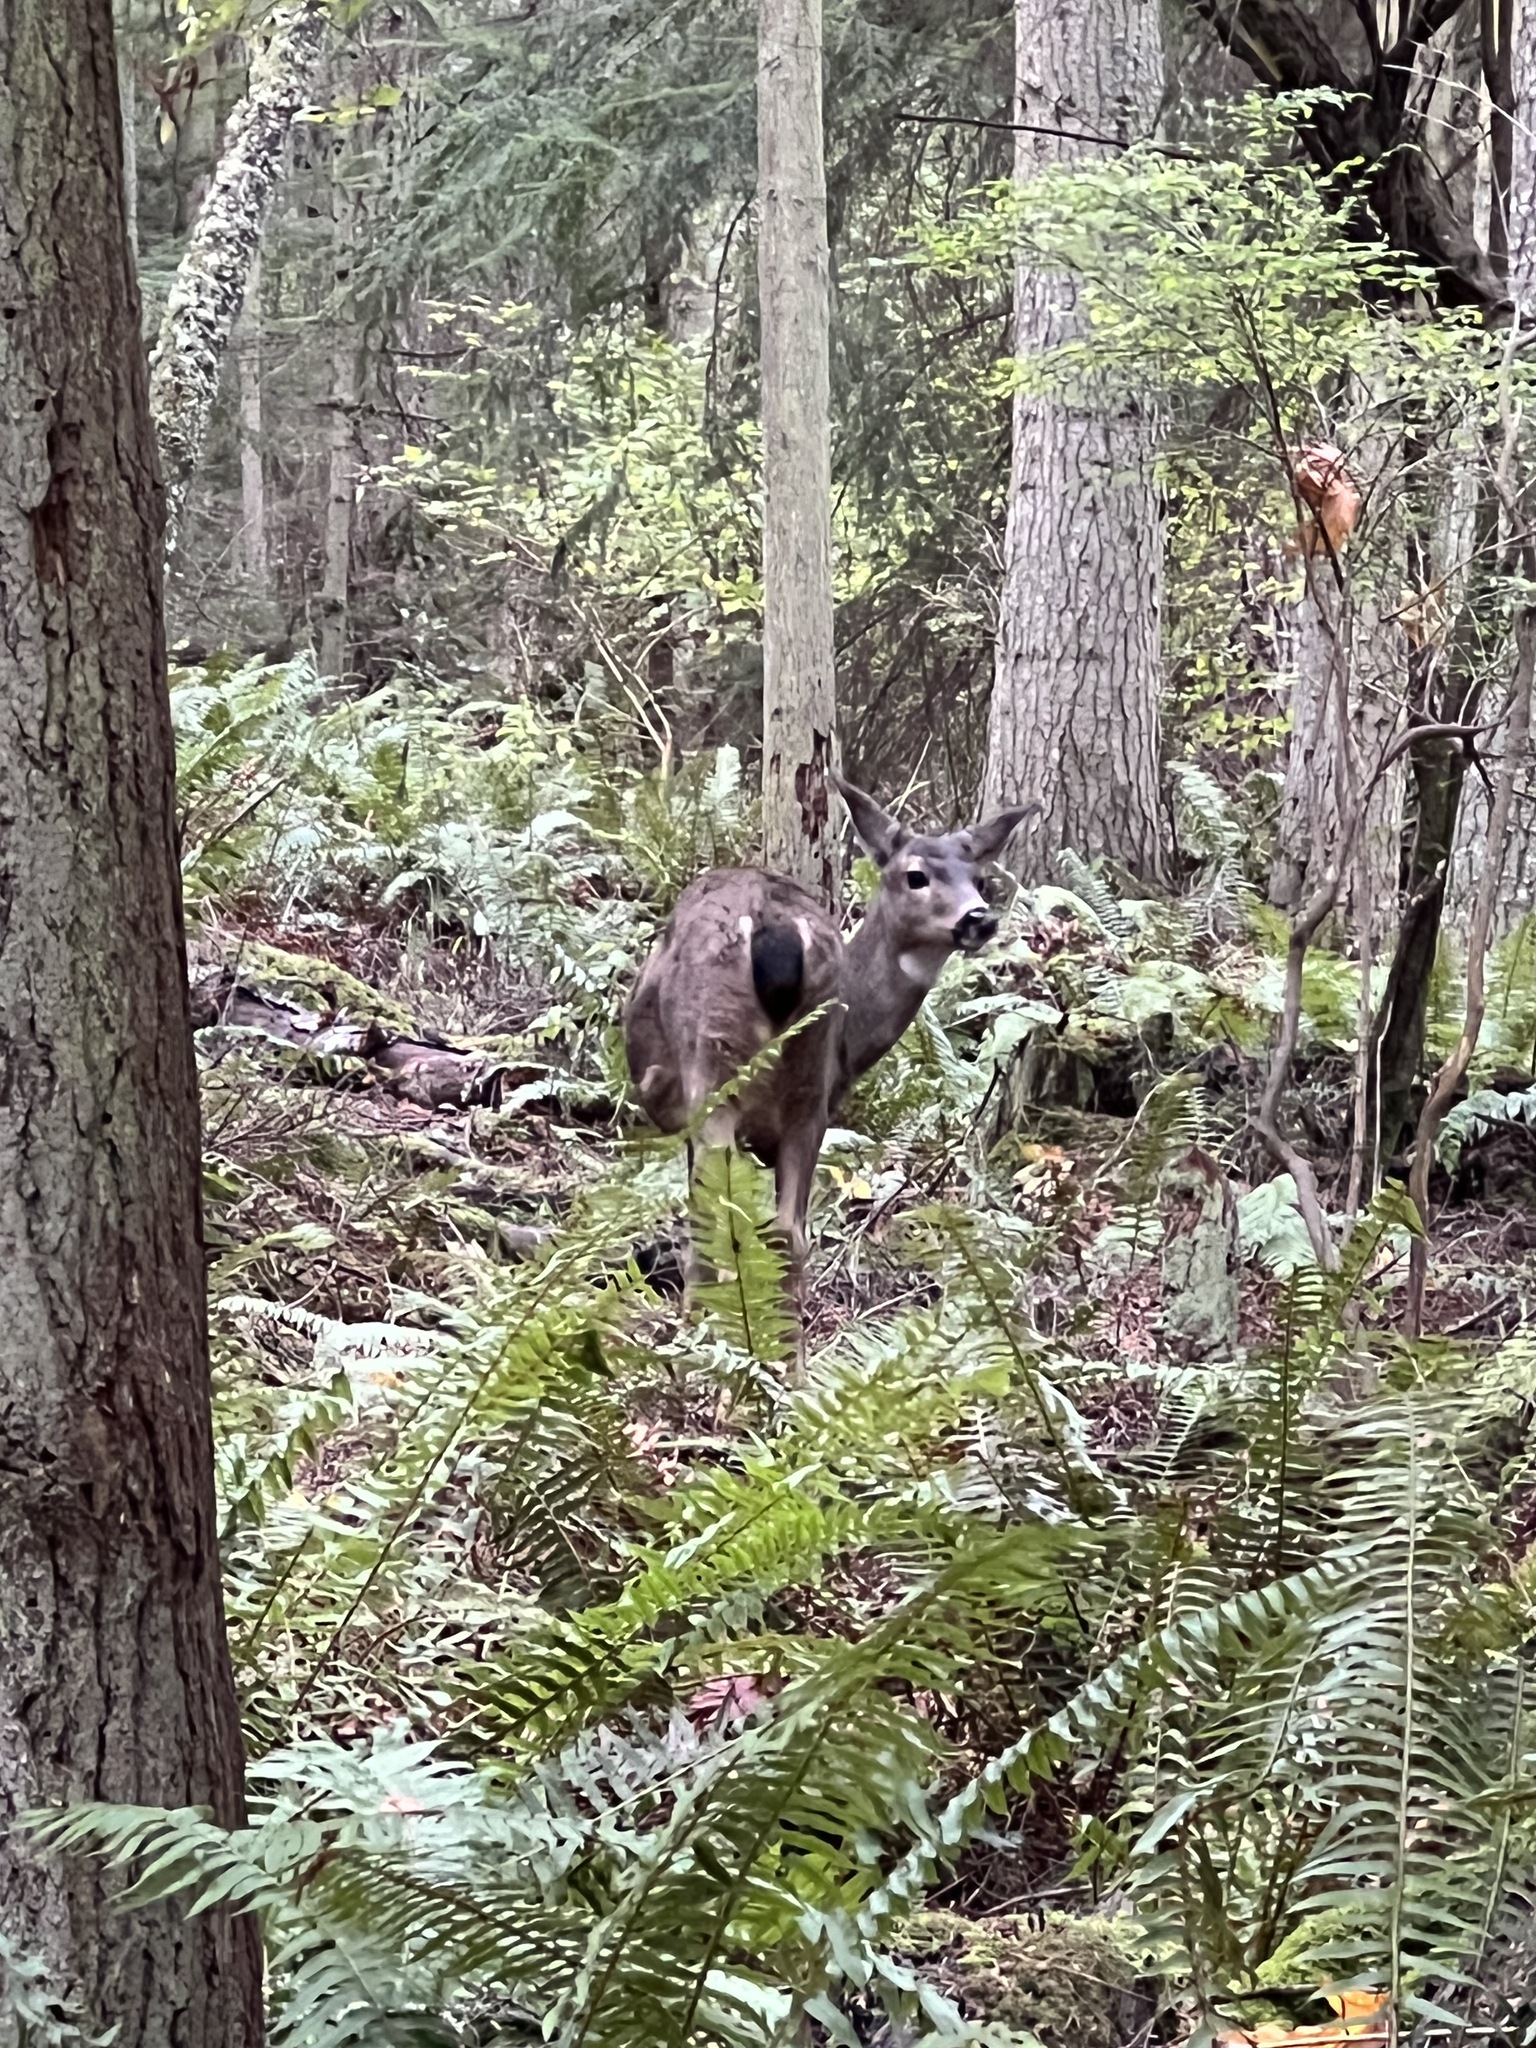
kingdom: Animalia
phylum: Chordata
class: Mammalia
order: Artiodactyla
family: Cervidae
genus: Odocoileus
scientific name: Odocoileus hemionus
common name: Mule deer
